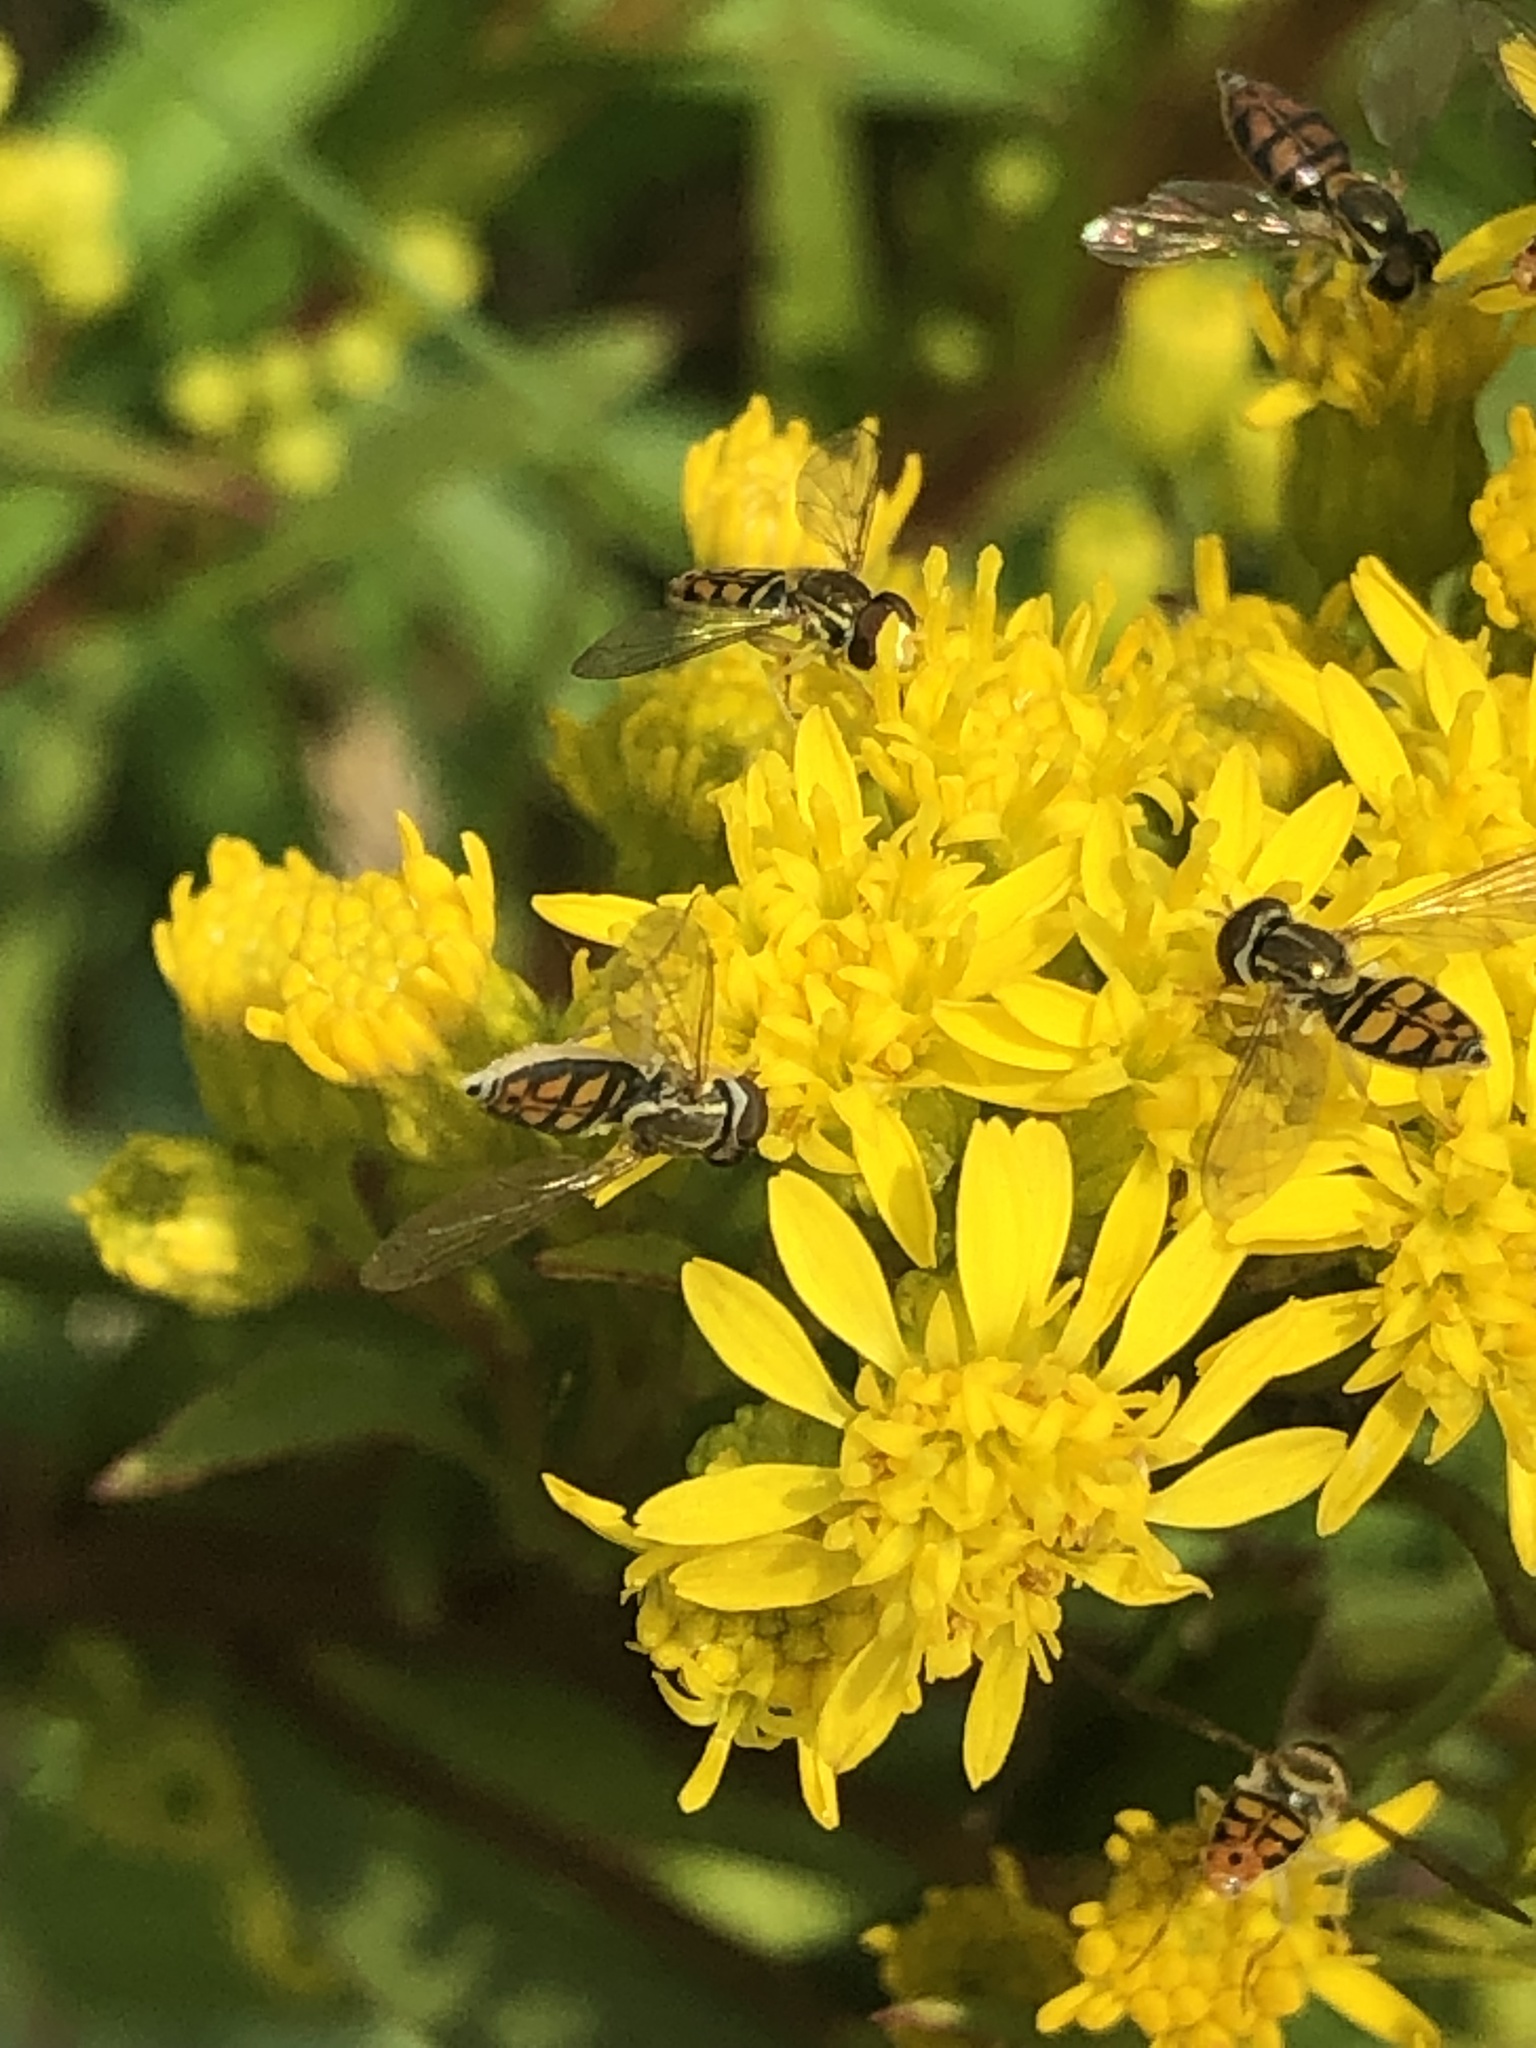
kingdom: Animalia
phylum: Arthropoda
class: Insecta
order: Diptera
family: Syrphidae
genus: Toxomerus
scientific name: Toxomerus marginatus
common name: Syrphid fly
